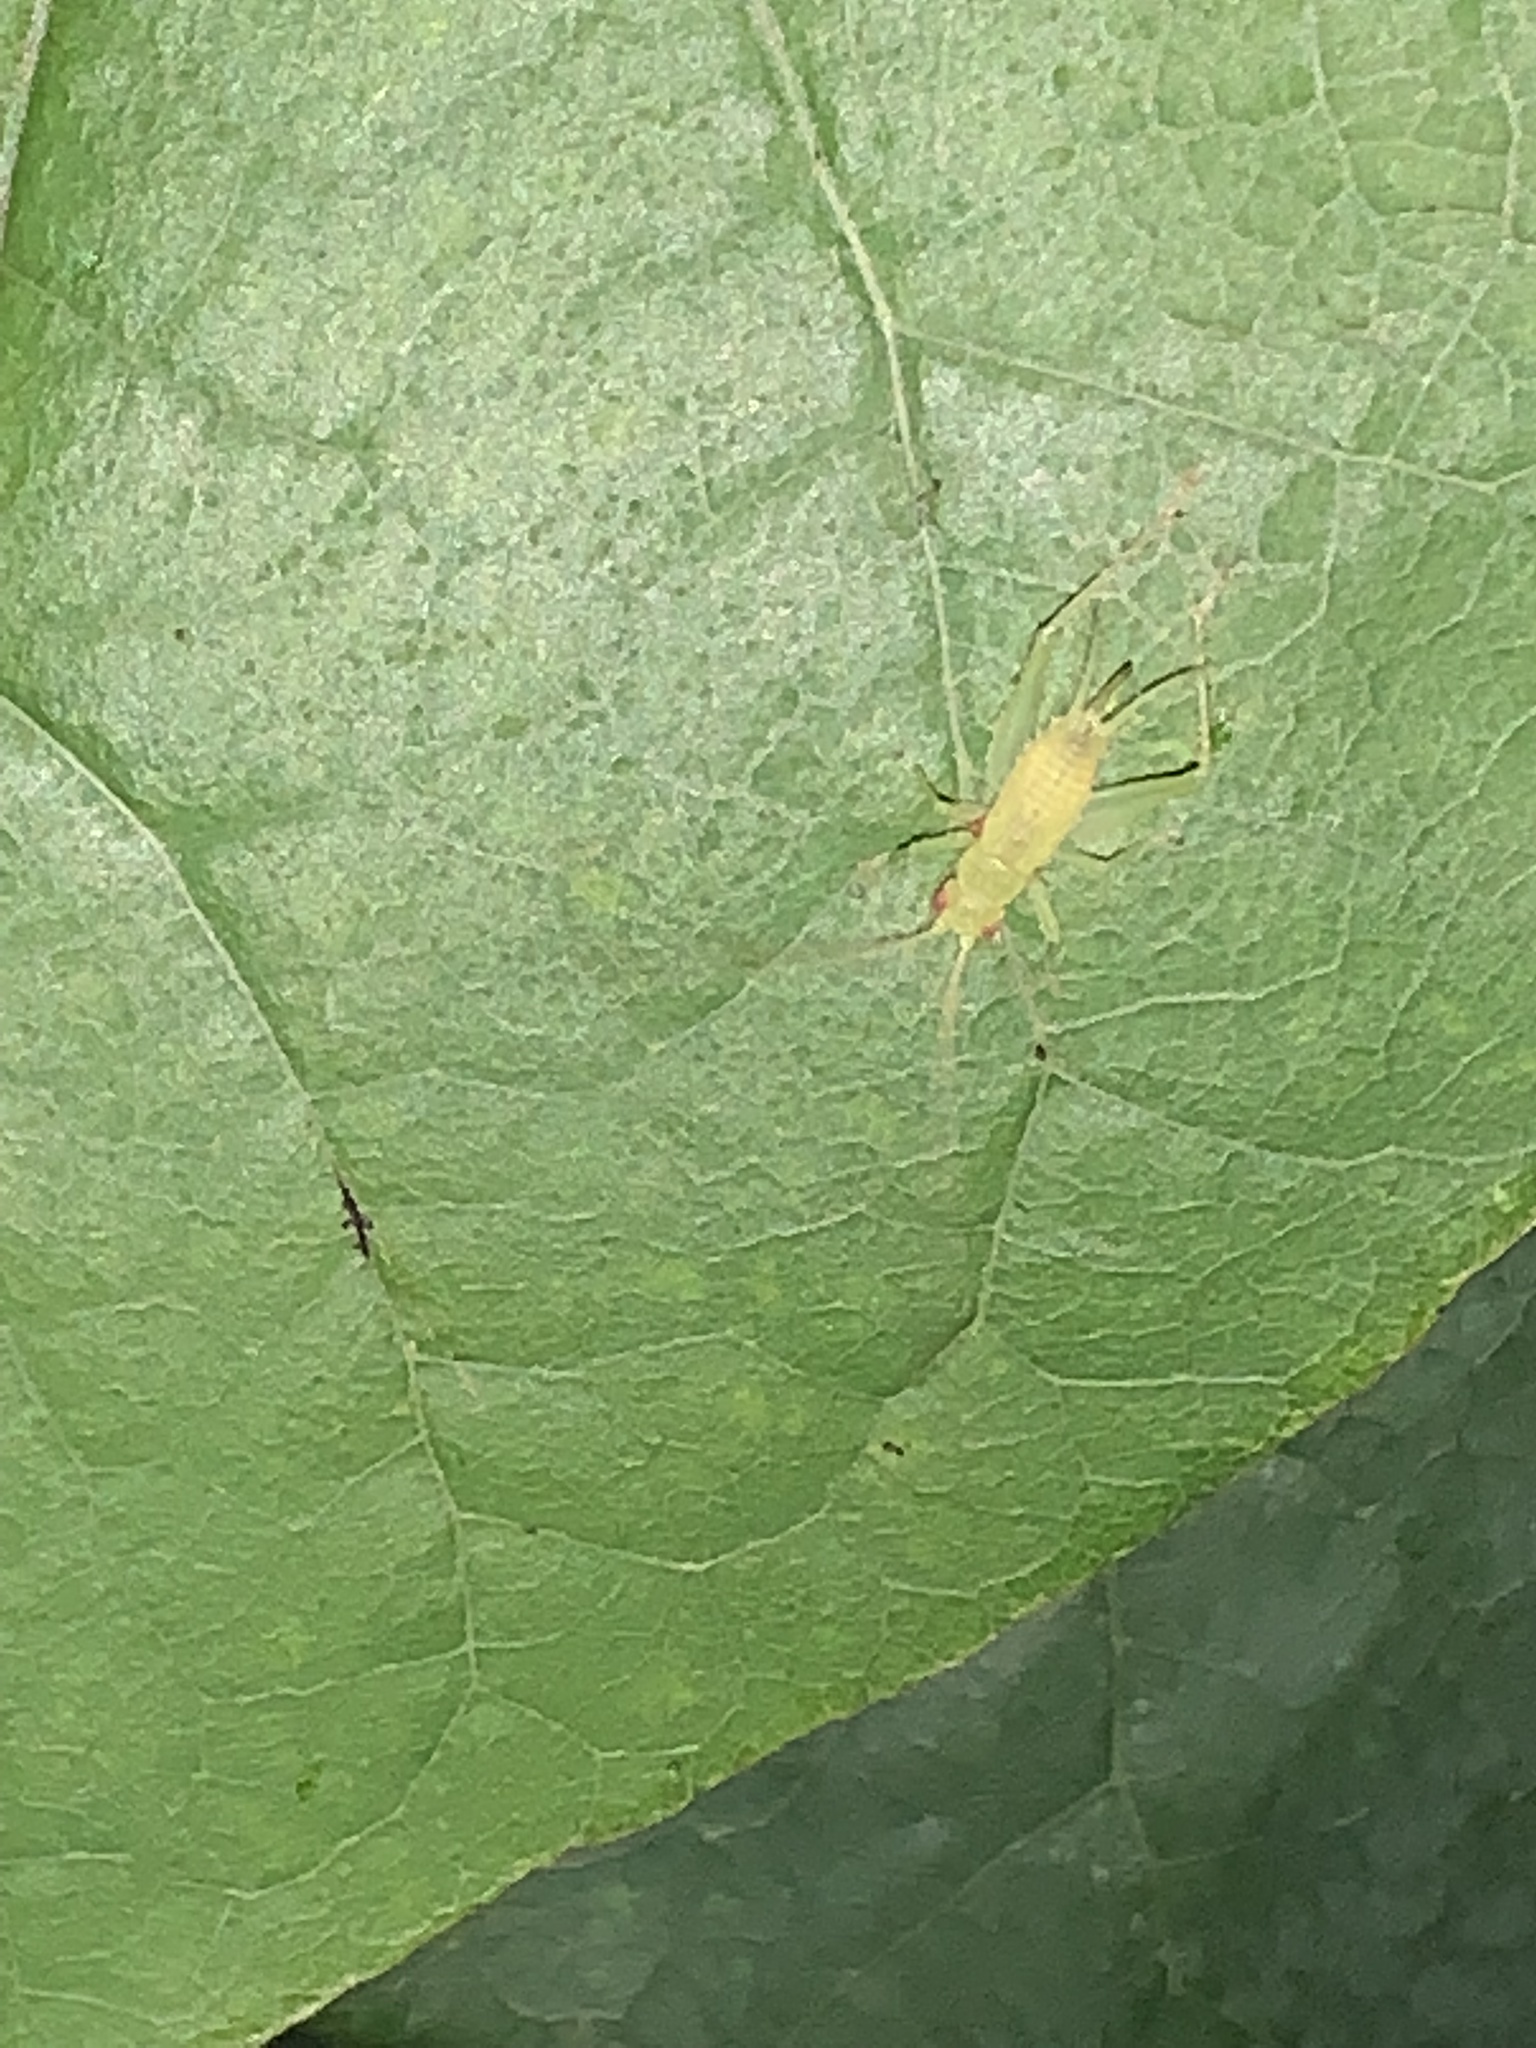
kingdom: Animalia
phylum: Arthropoda
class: Insecta
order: Orthoptera
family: Trigonidiidae
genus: Cyrtoxipha
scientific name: Cyrtoxipha columbiana
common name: Columbian trig
